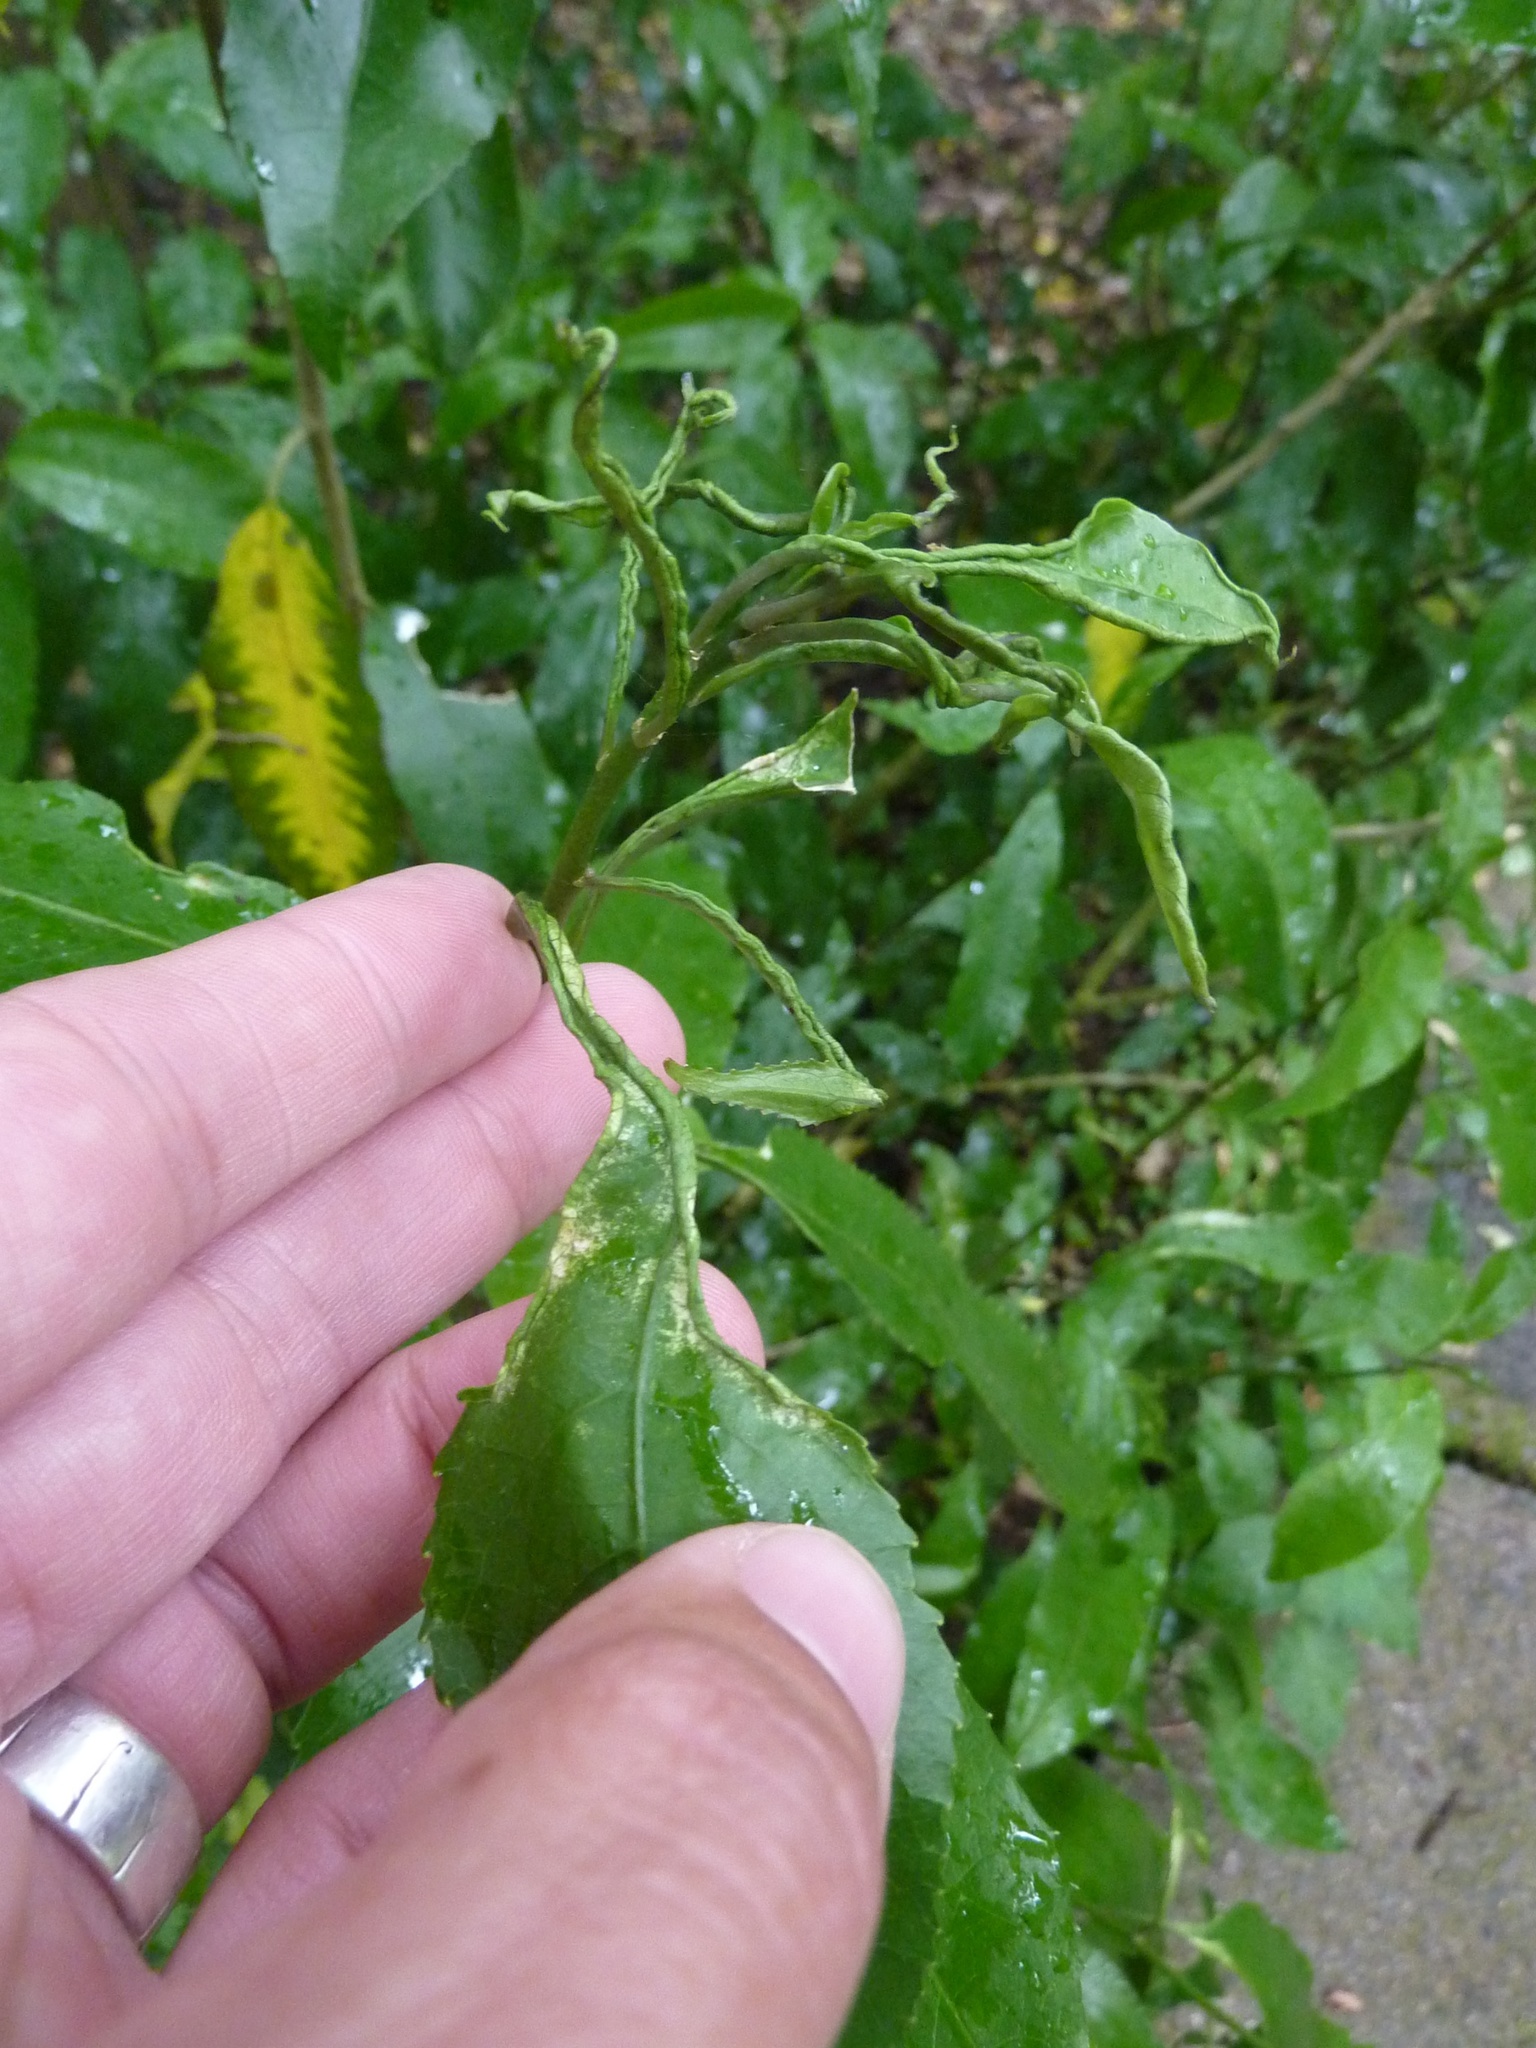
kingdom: Plantae
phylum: Tracheophyta
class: Magnoliopsida
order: Malpighiales
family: Violaceae
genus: Melicytus
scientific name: Melicytus ramiflorus
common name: Mahoe
